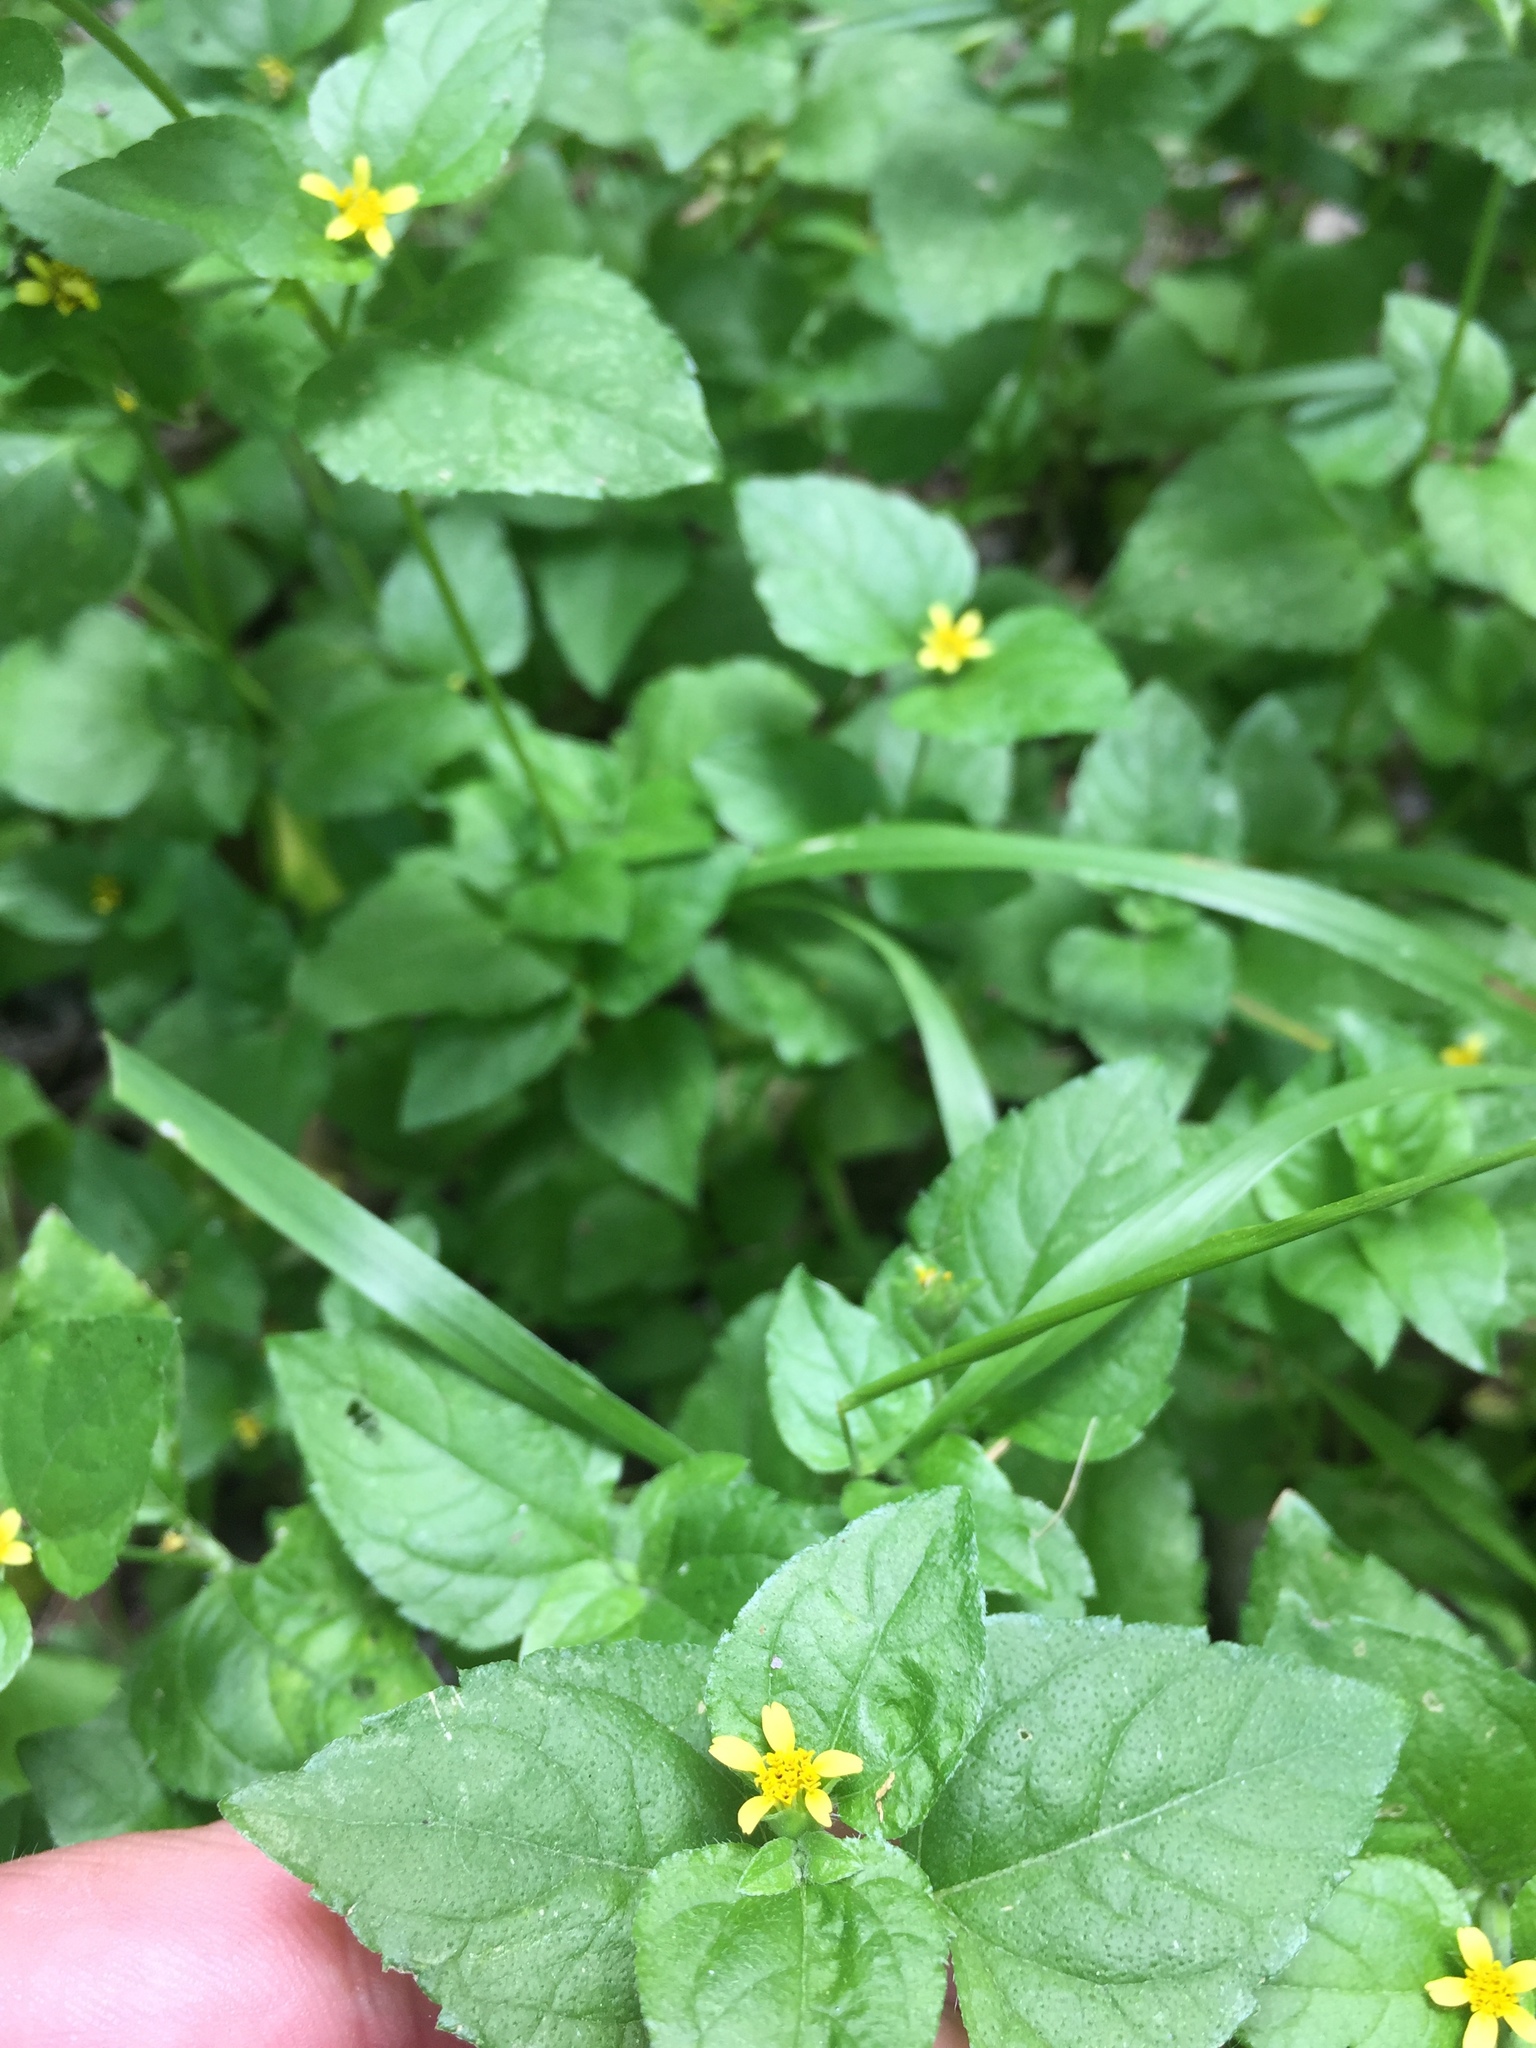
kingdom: Plantae
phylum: Tracheophyta
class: Magnoliopsida
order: Asterales
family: Asteraceae
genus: Calyptocarpus
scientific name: Calyptocarpus vialis
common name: Straggler daisy
